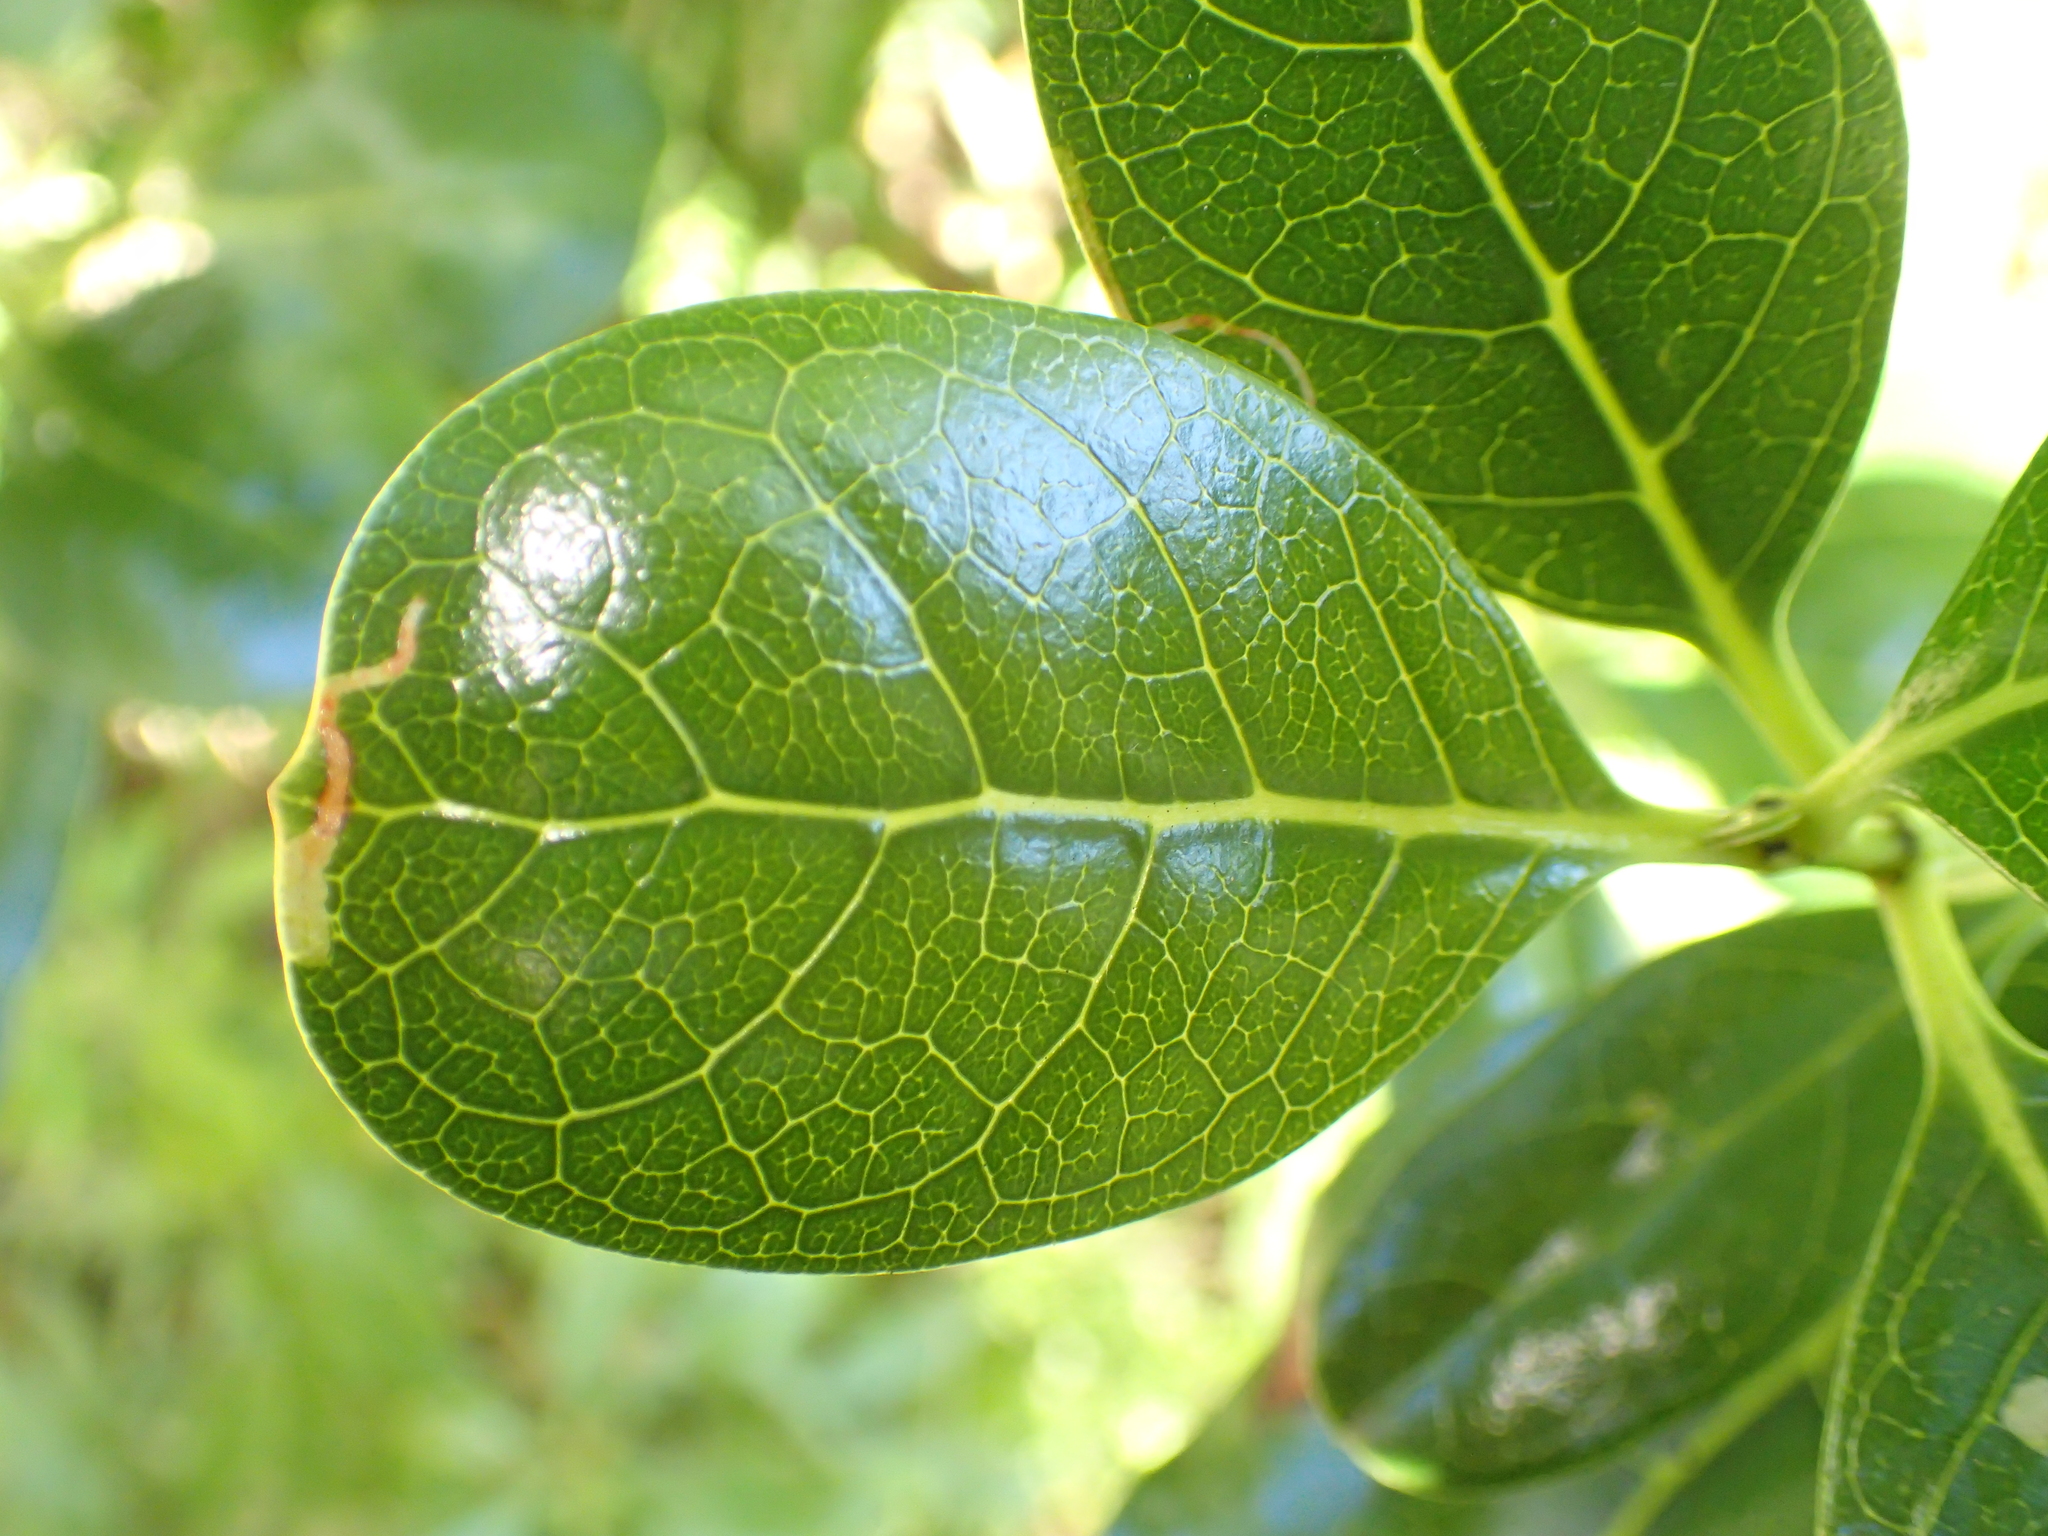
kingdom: Plantae
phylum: Tracheophyta
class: Magnoliopsida
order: Gentianales
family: Rubiaceae
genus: Coprosma
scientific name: Coprosma repens
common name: Tree bedstraw
